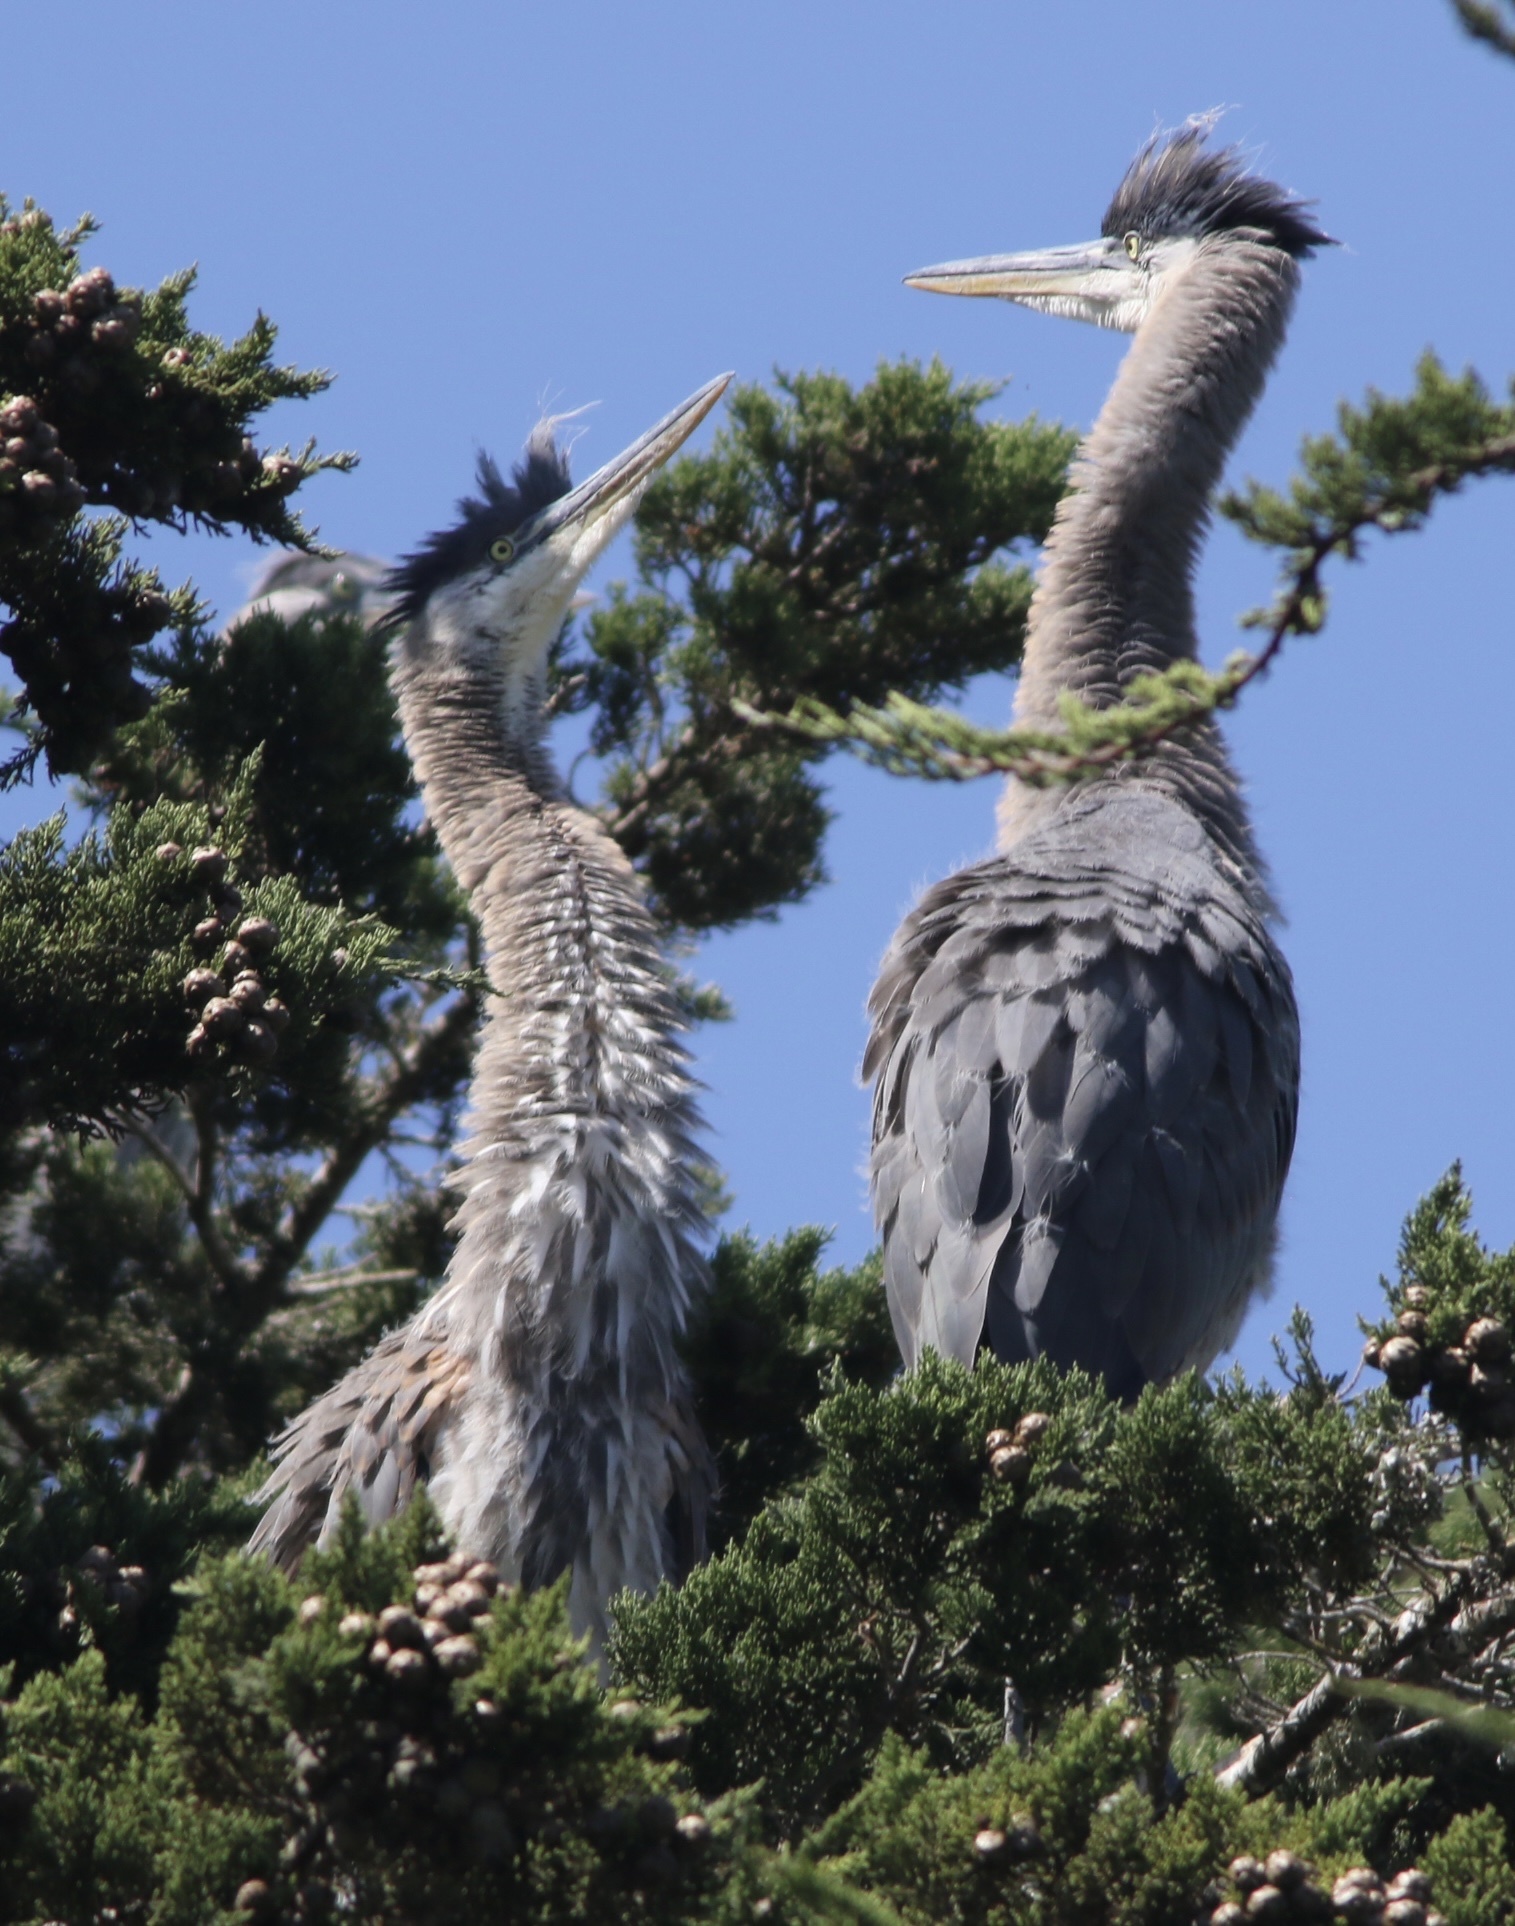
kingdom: Animalia
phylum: Chordata
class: Aves
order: Pelecaniformes
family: Ardeidae
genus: Ardea
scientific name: Ardea herodias
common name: Great blue heron
